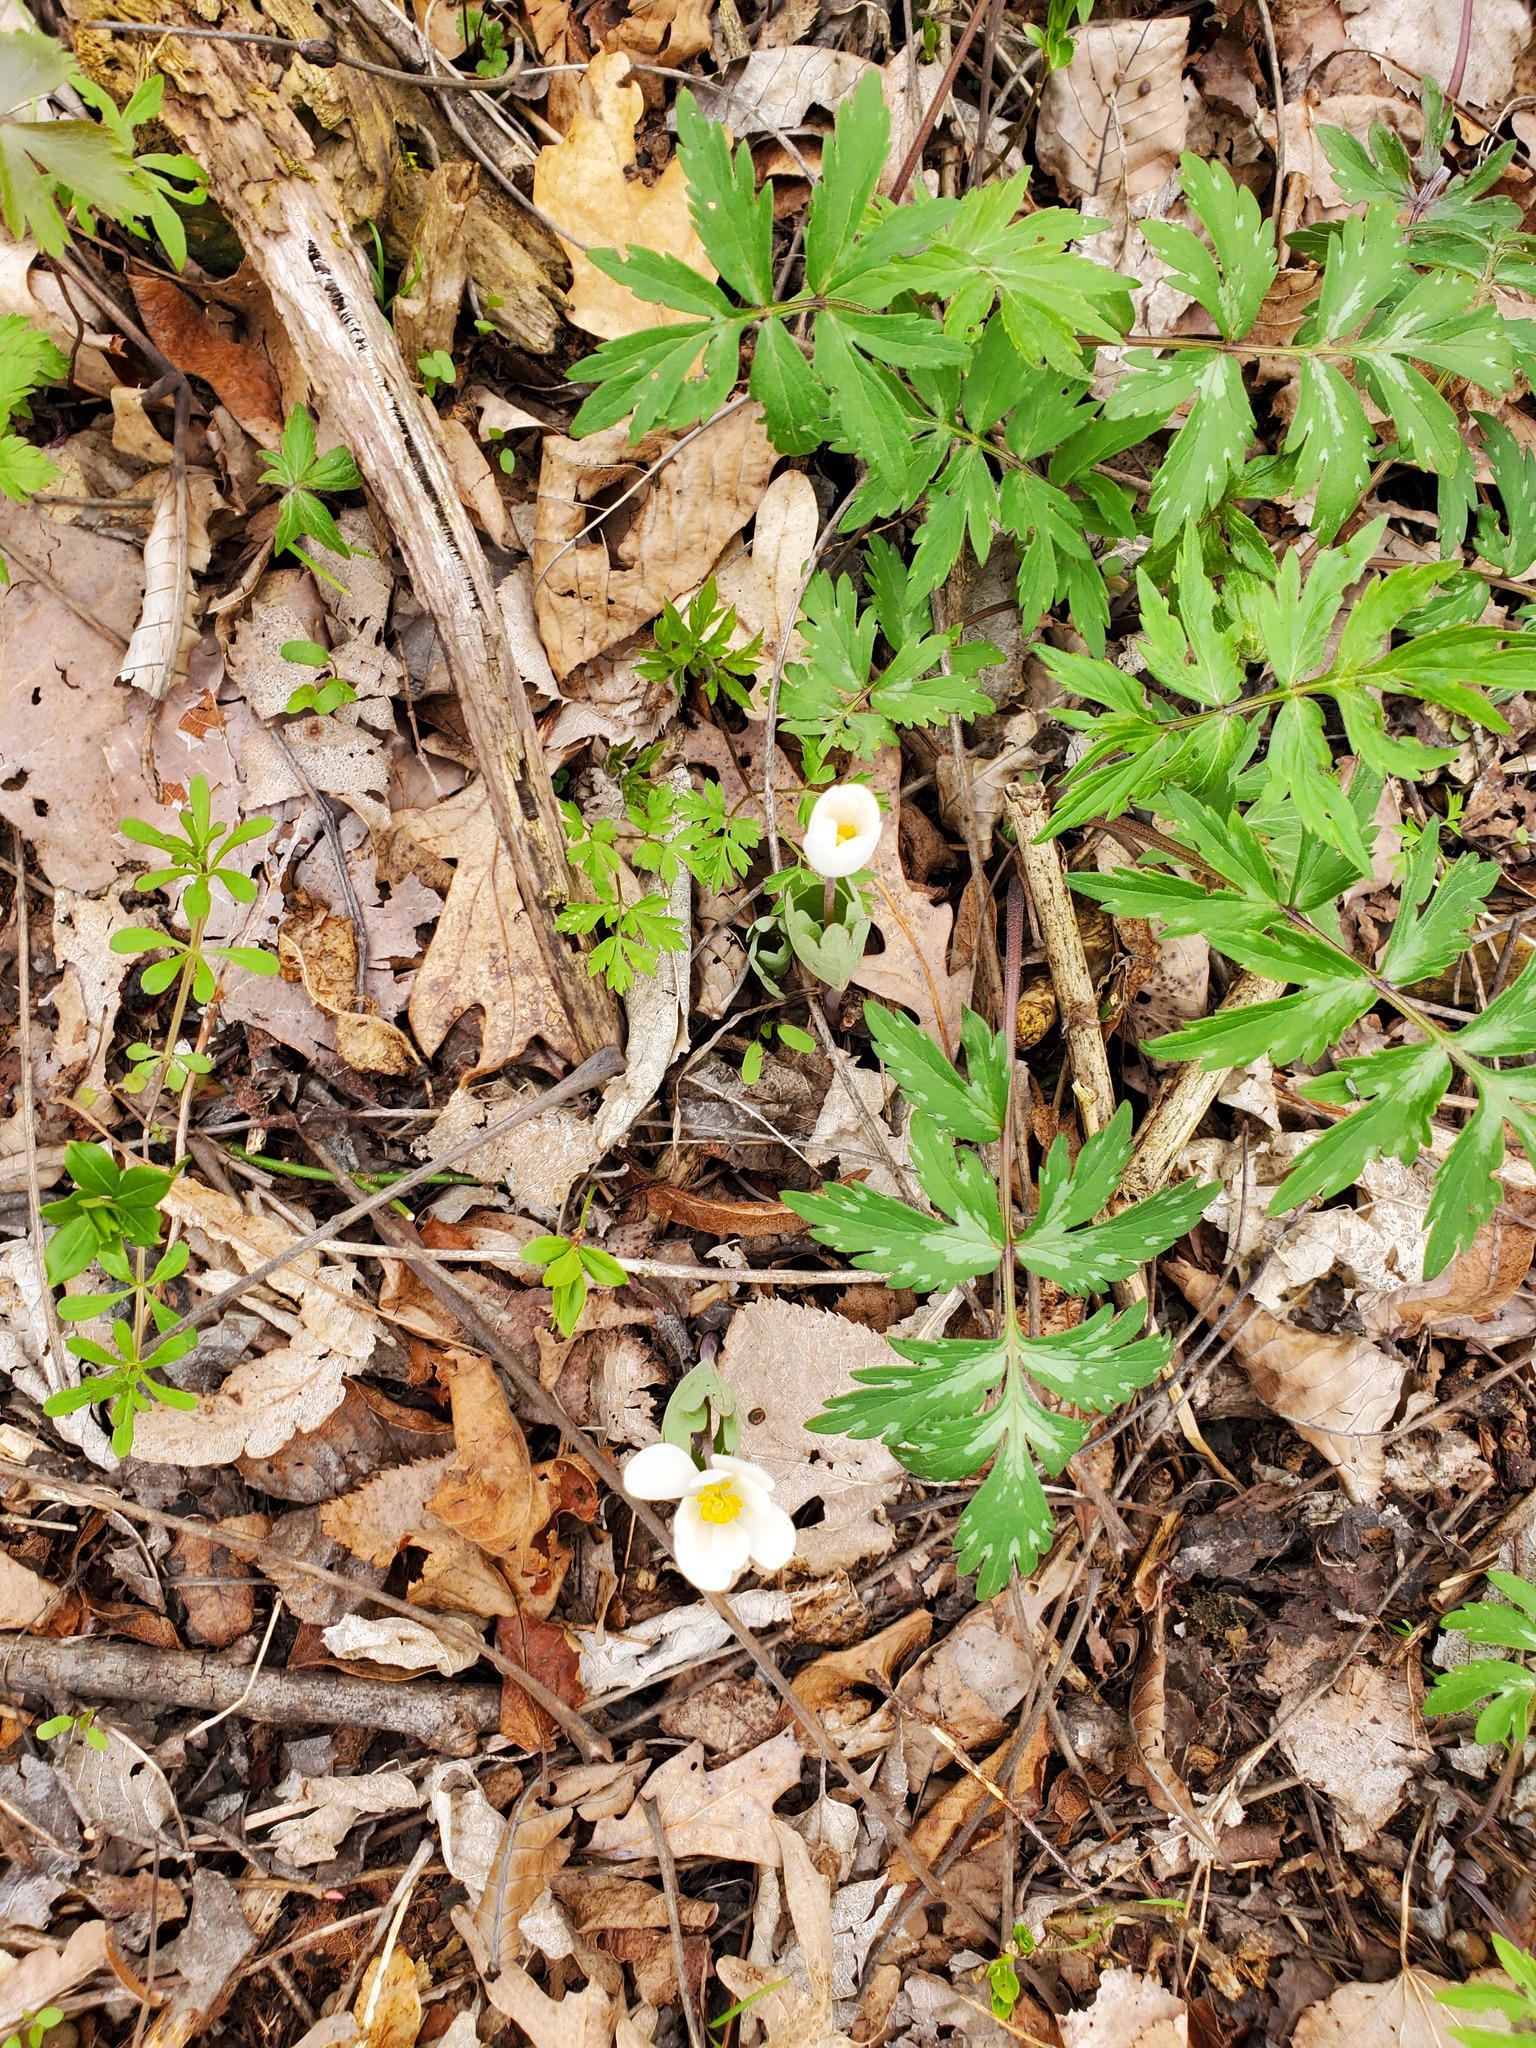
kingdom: Plantae
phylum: Tracheophyta
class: Magnoliopsida
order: Ranunculales
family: Papaveraceae
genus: Sanguinaria
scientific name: Sanguinaria canadensis
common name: Bloodroot
